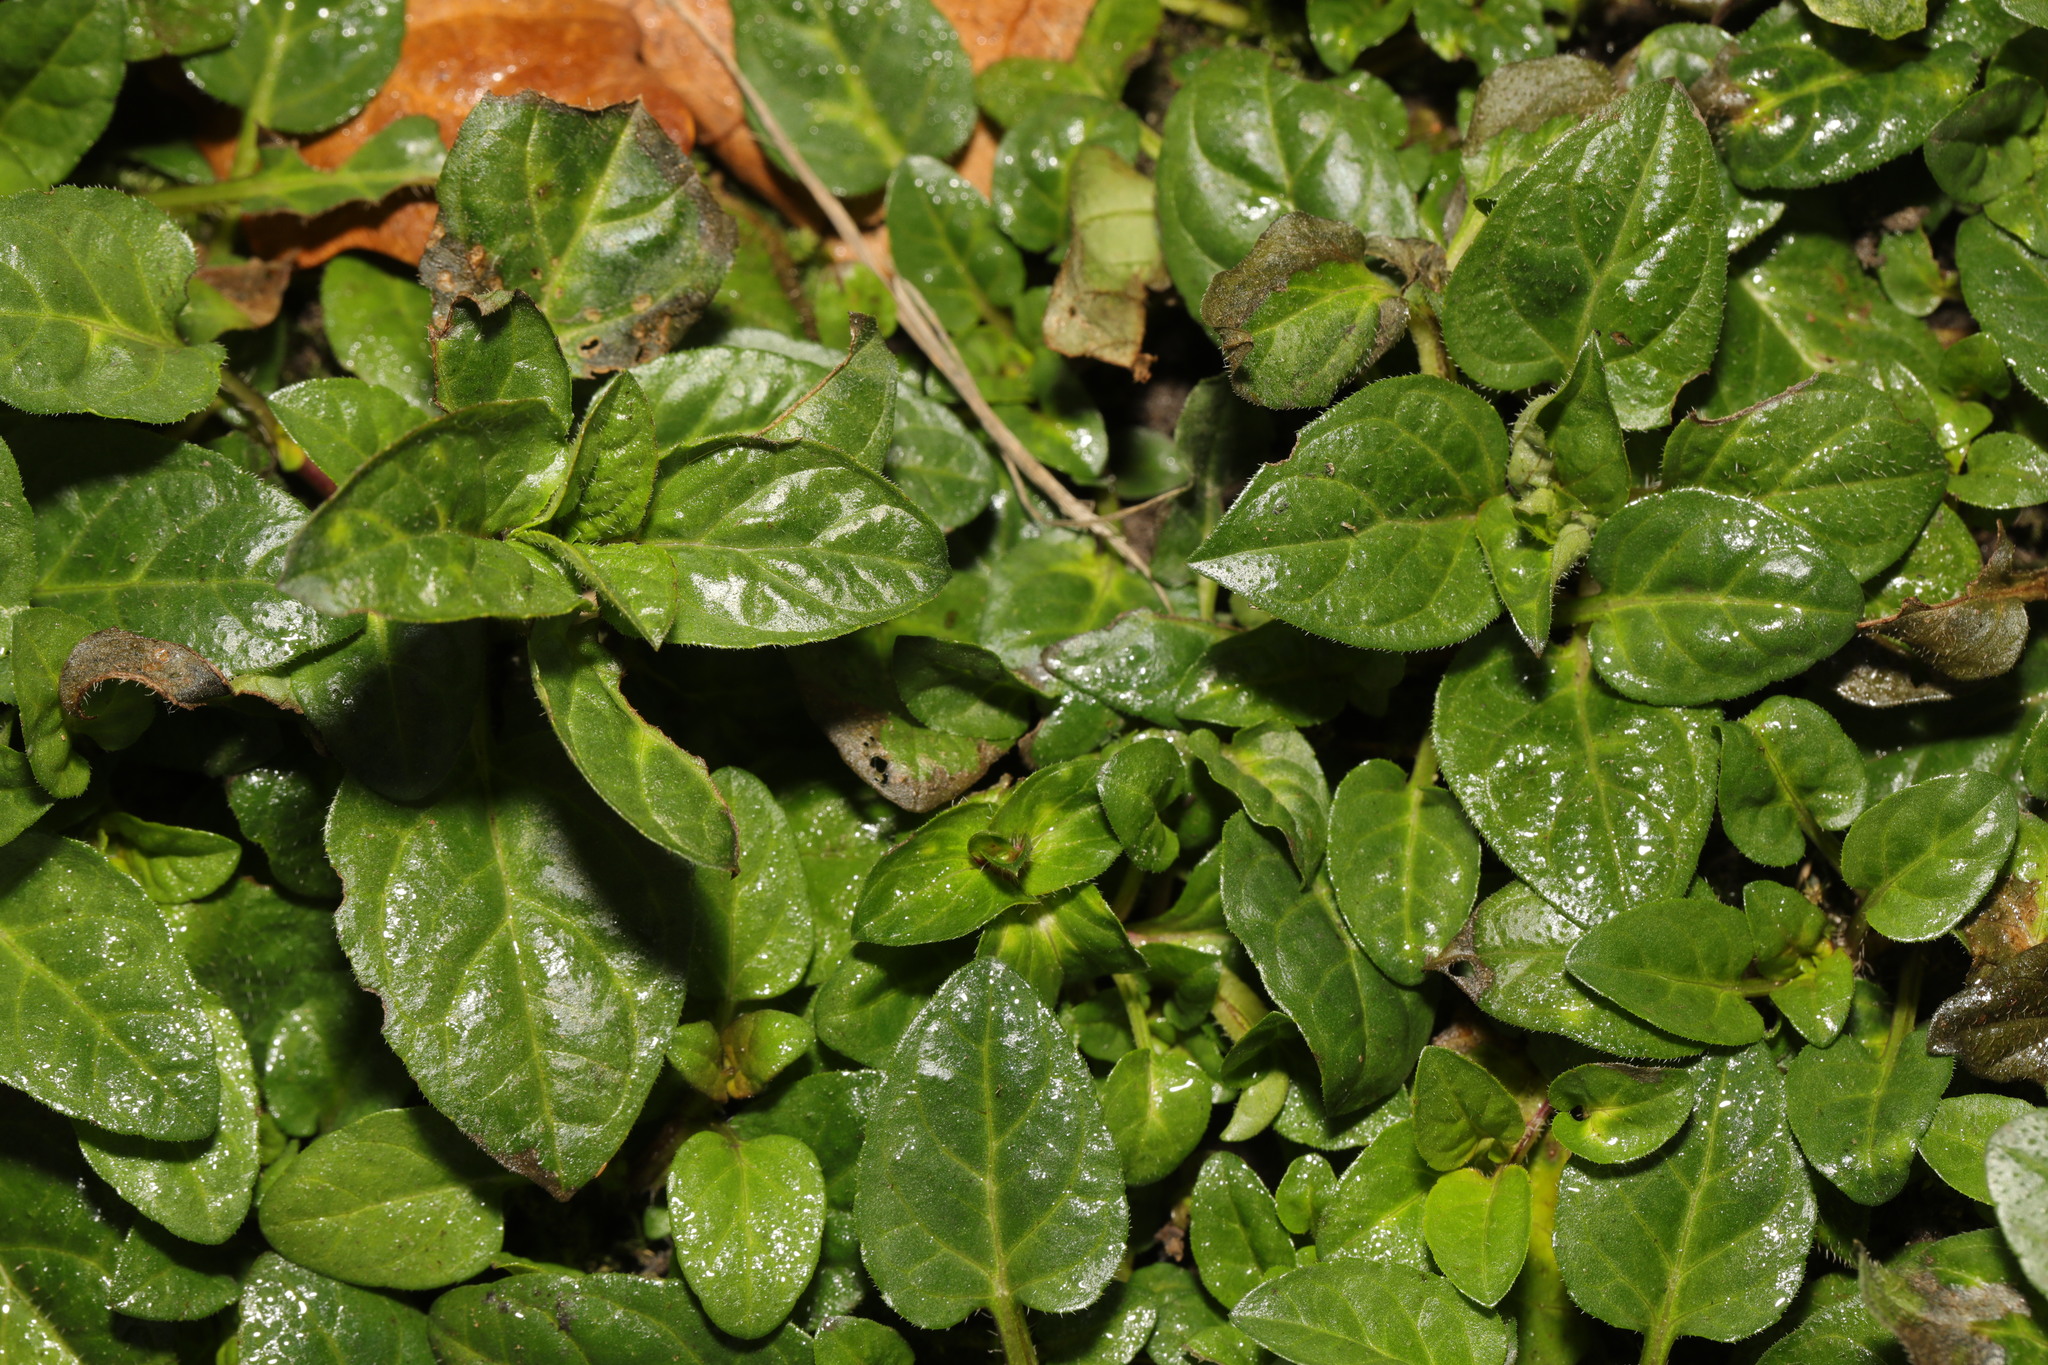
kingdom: Plantae
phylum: Tracheophyta
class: Magnoliopsida
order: Lamiales
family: Lamiaceae
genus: Prunella
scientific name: Prunella vulgaris
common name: Heal-all
